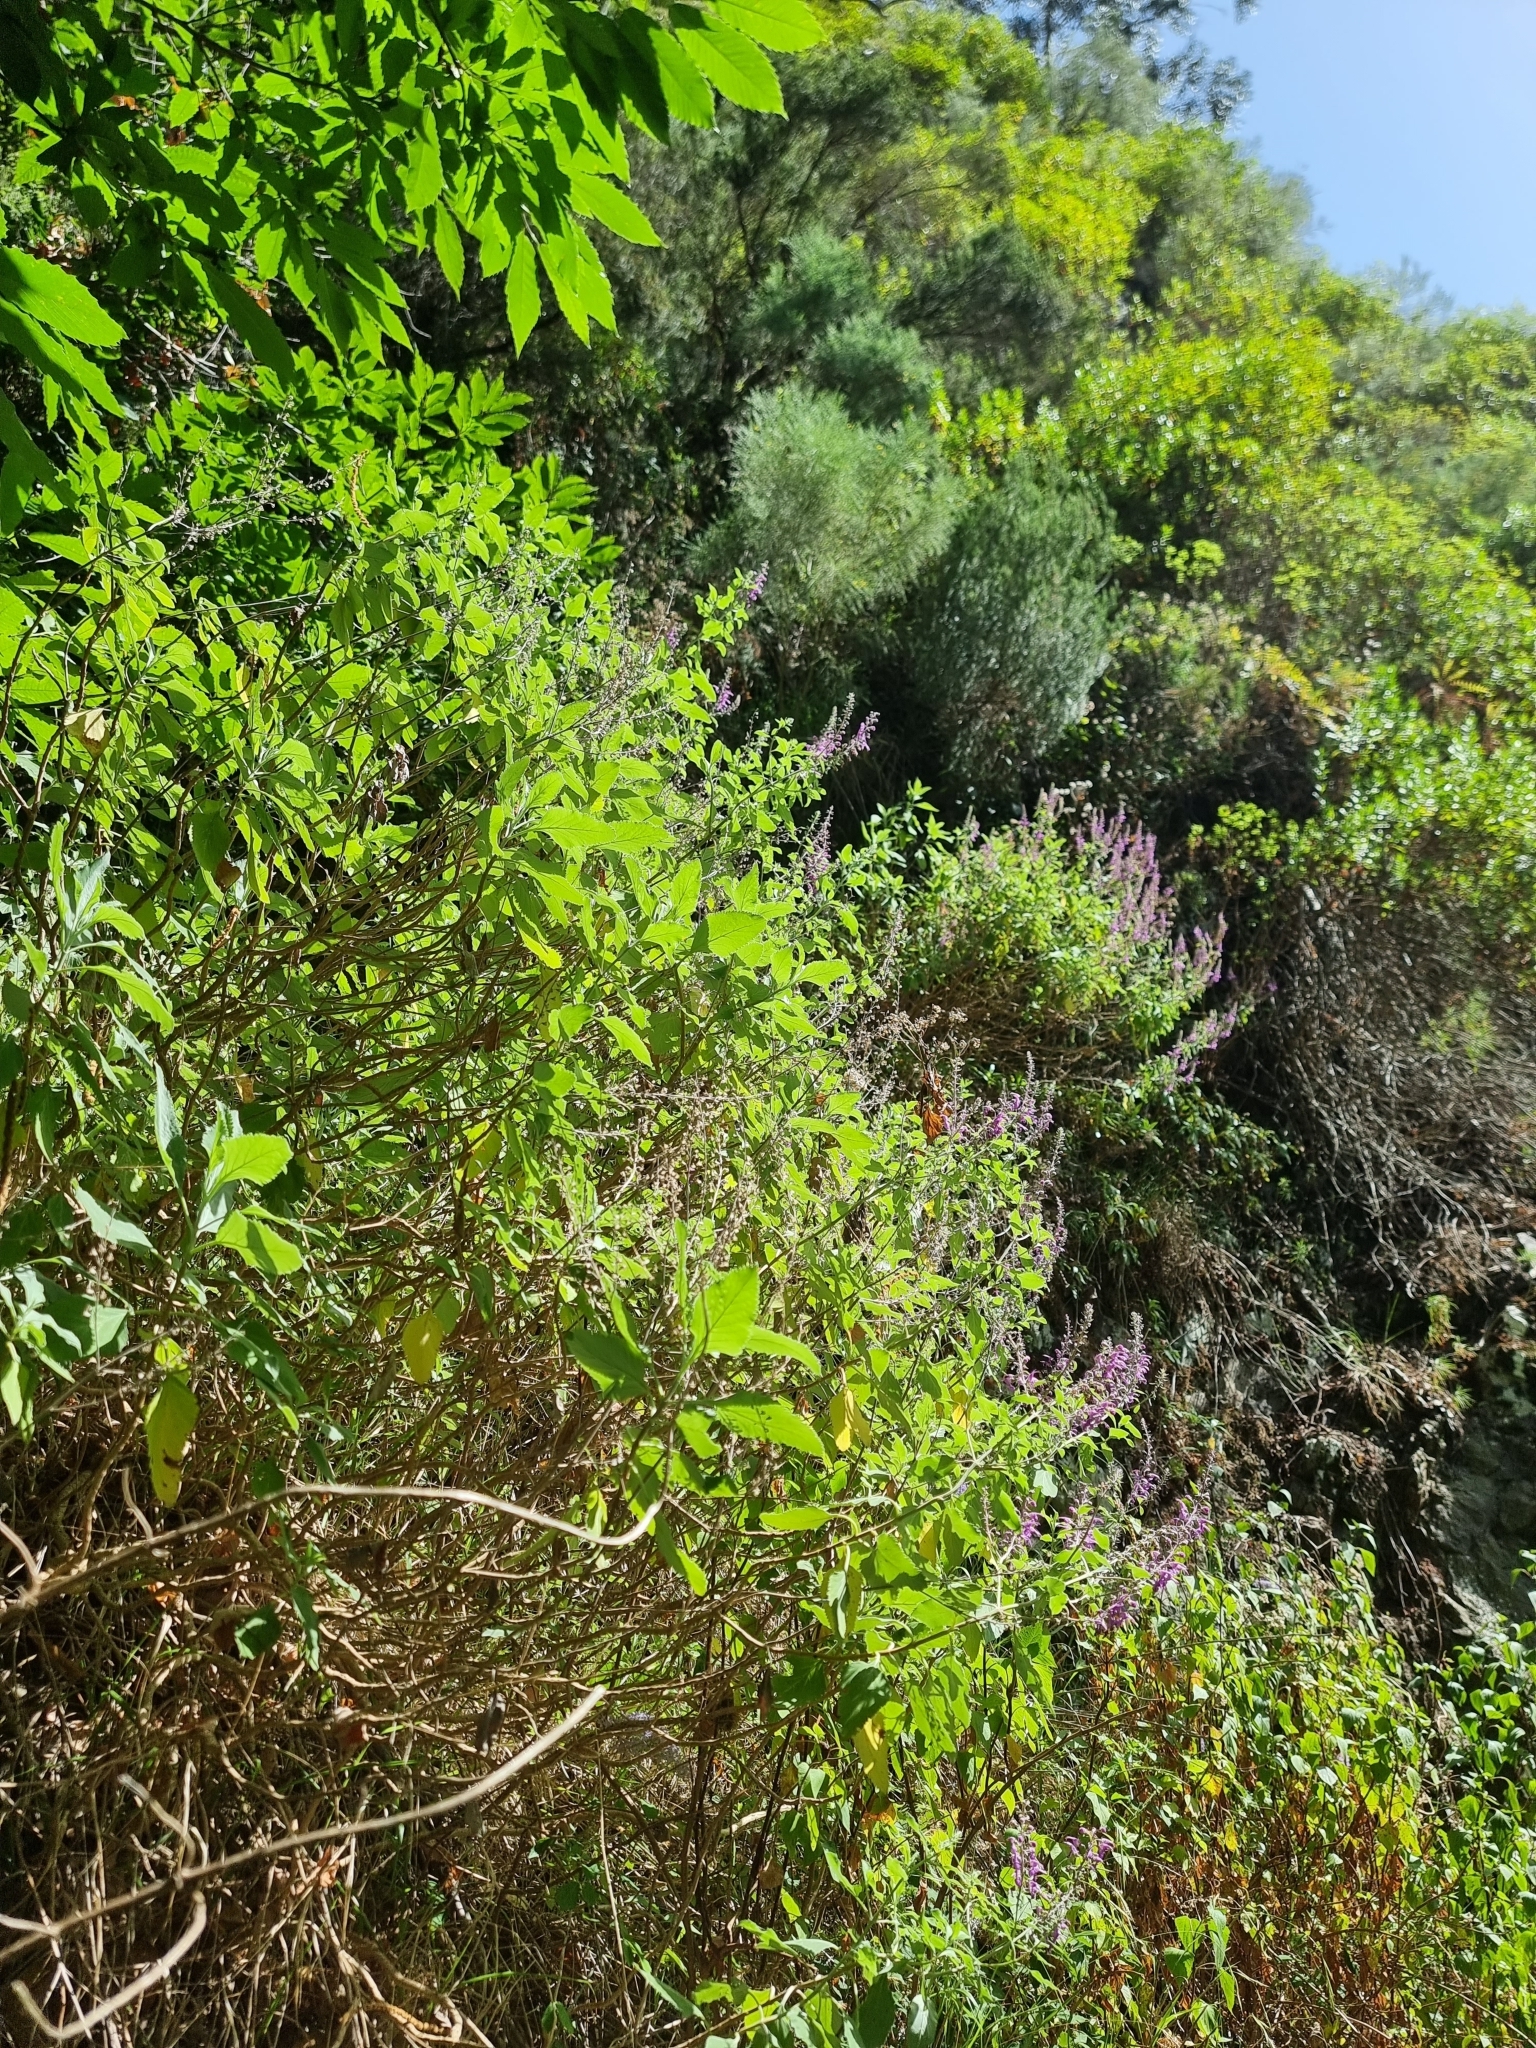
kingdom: Plantae
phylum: Tracheophyta
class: Magnoliopsida
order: Lamiales
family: Lamiaceae
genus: Teucrium
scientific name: Teucrium betonicum
